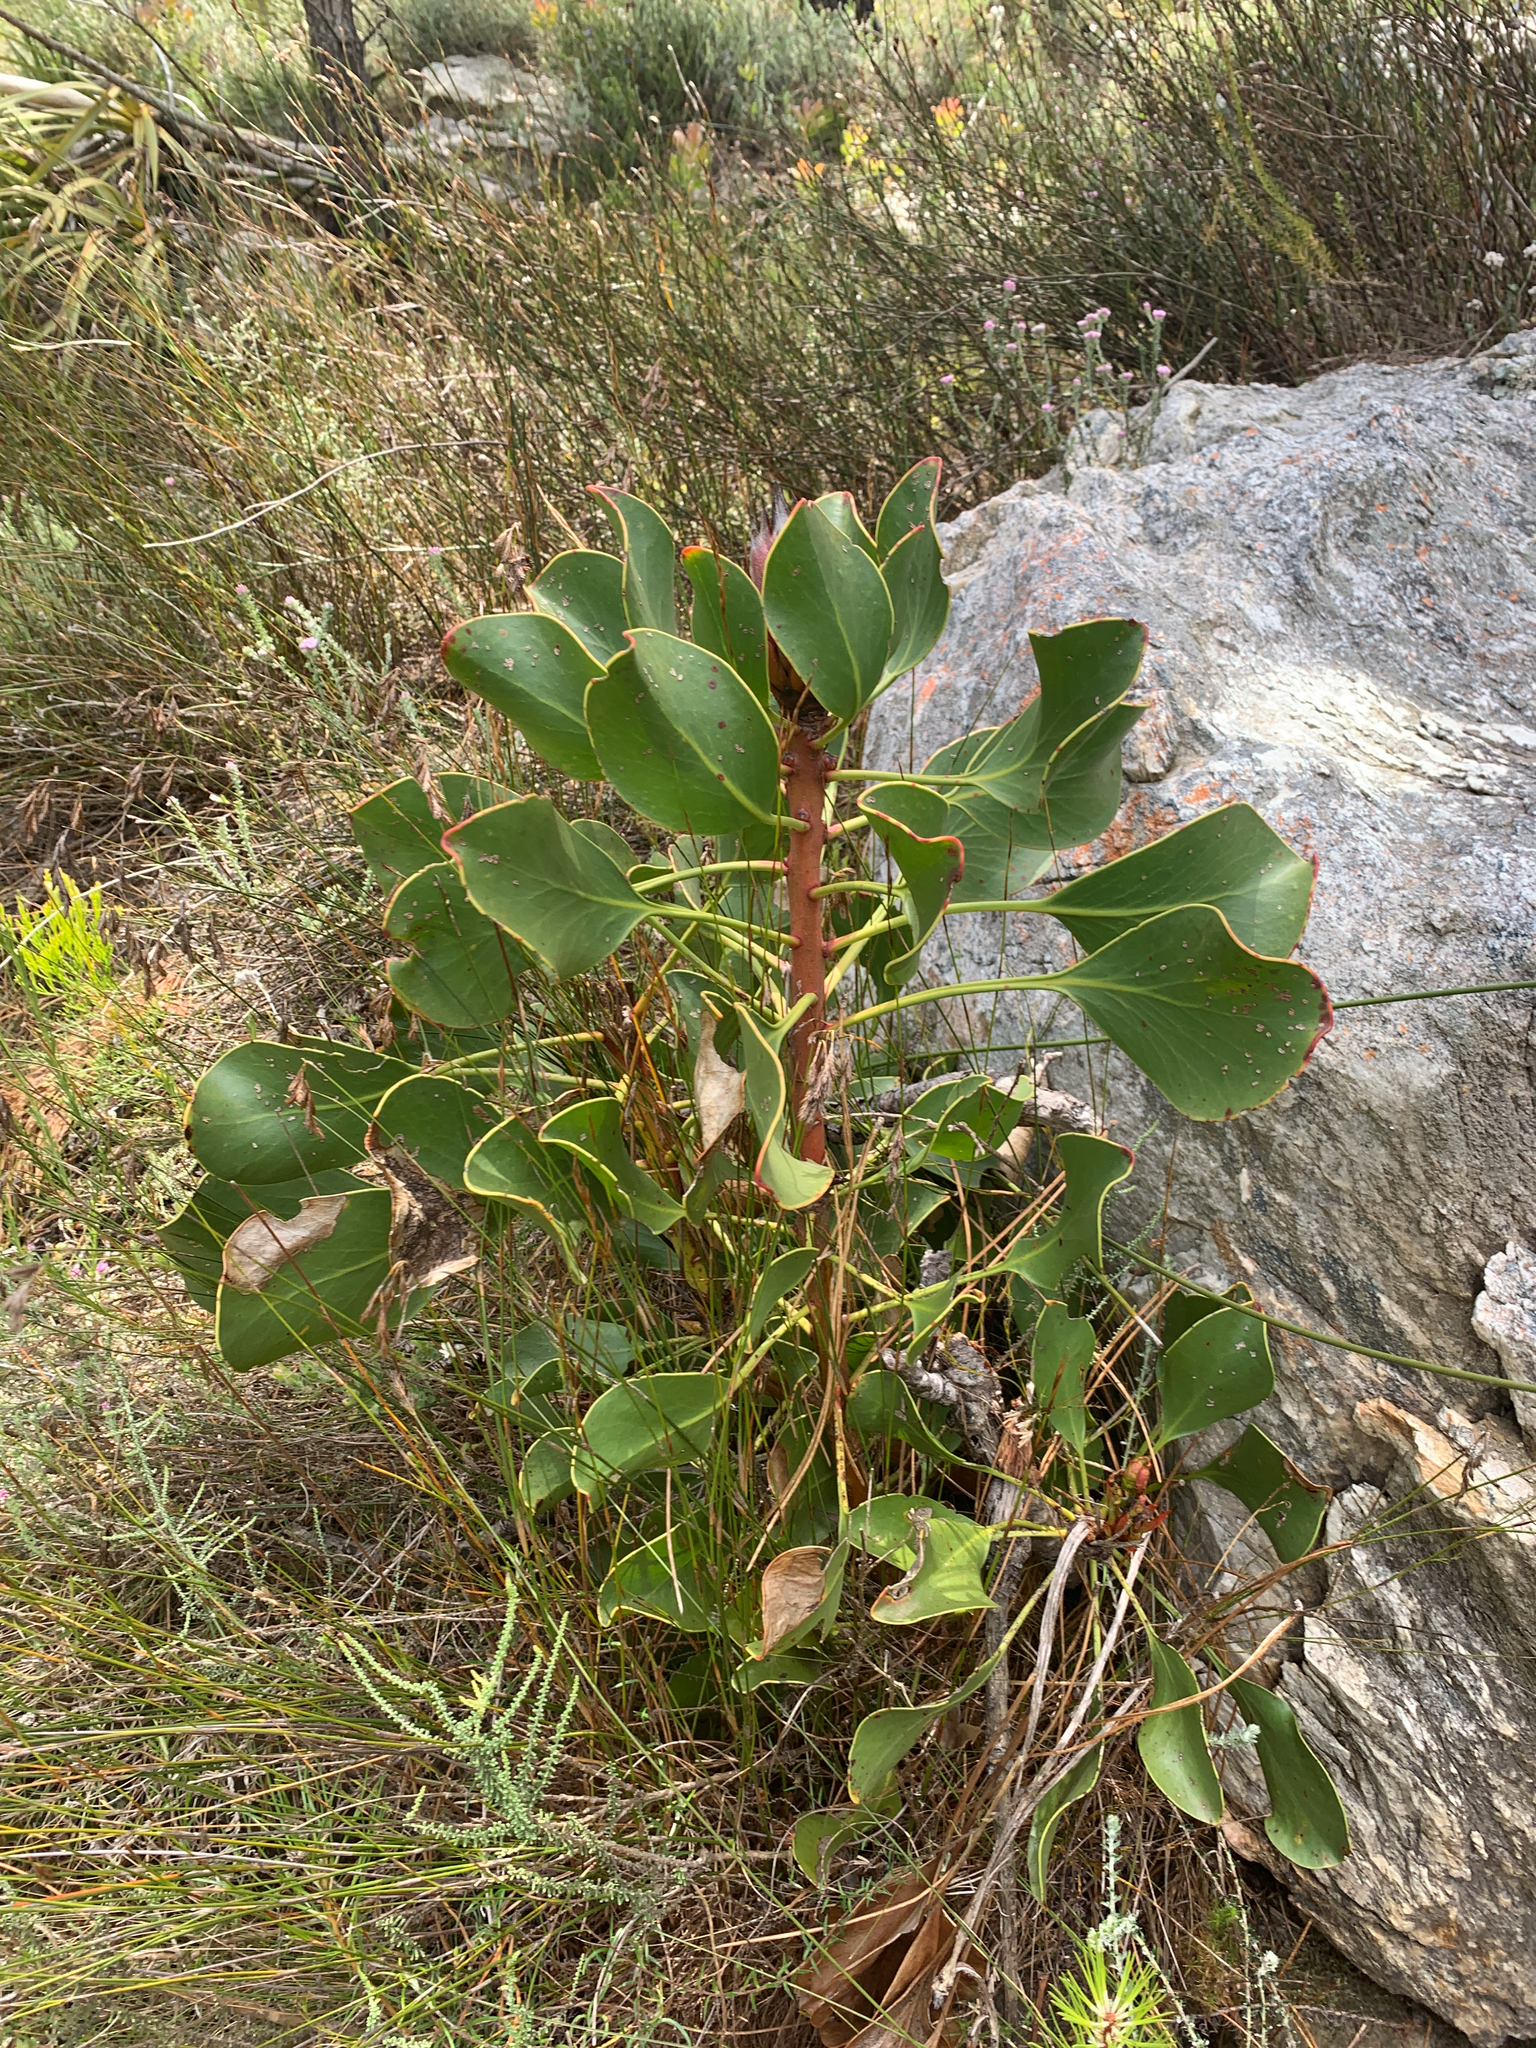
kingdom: Plantae
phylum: Tracheophyta
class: Magnoliopsida
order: Proteales
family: Proteaceae
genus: Protea
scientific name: Protea cynaroides
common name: King protea
